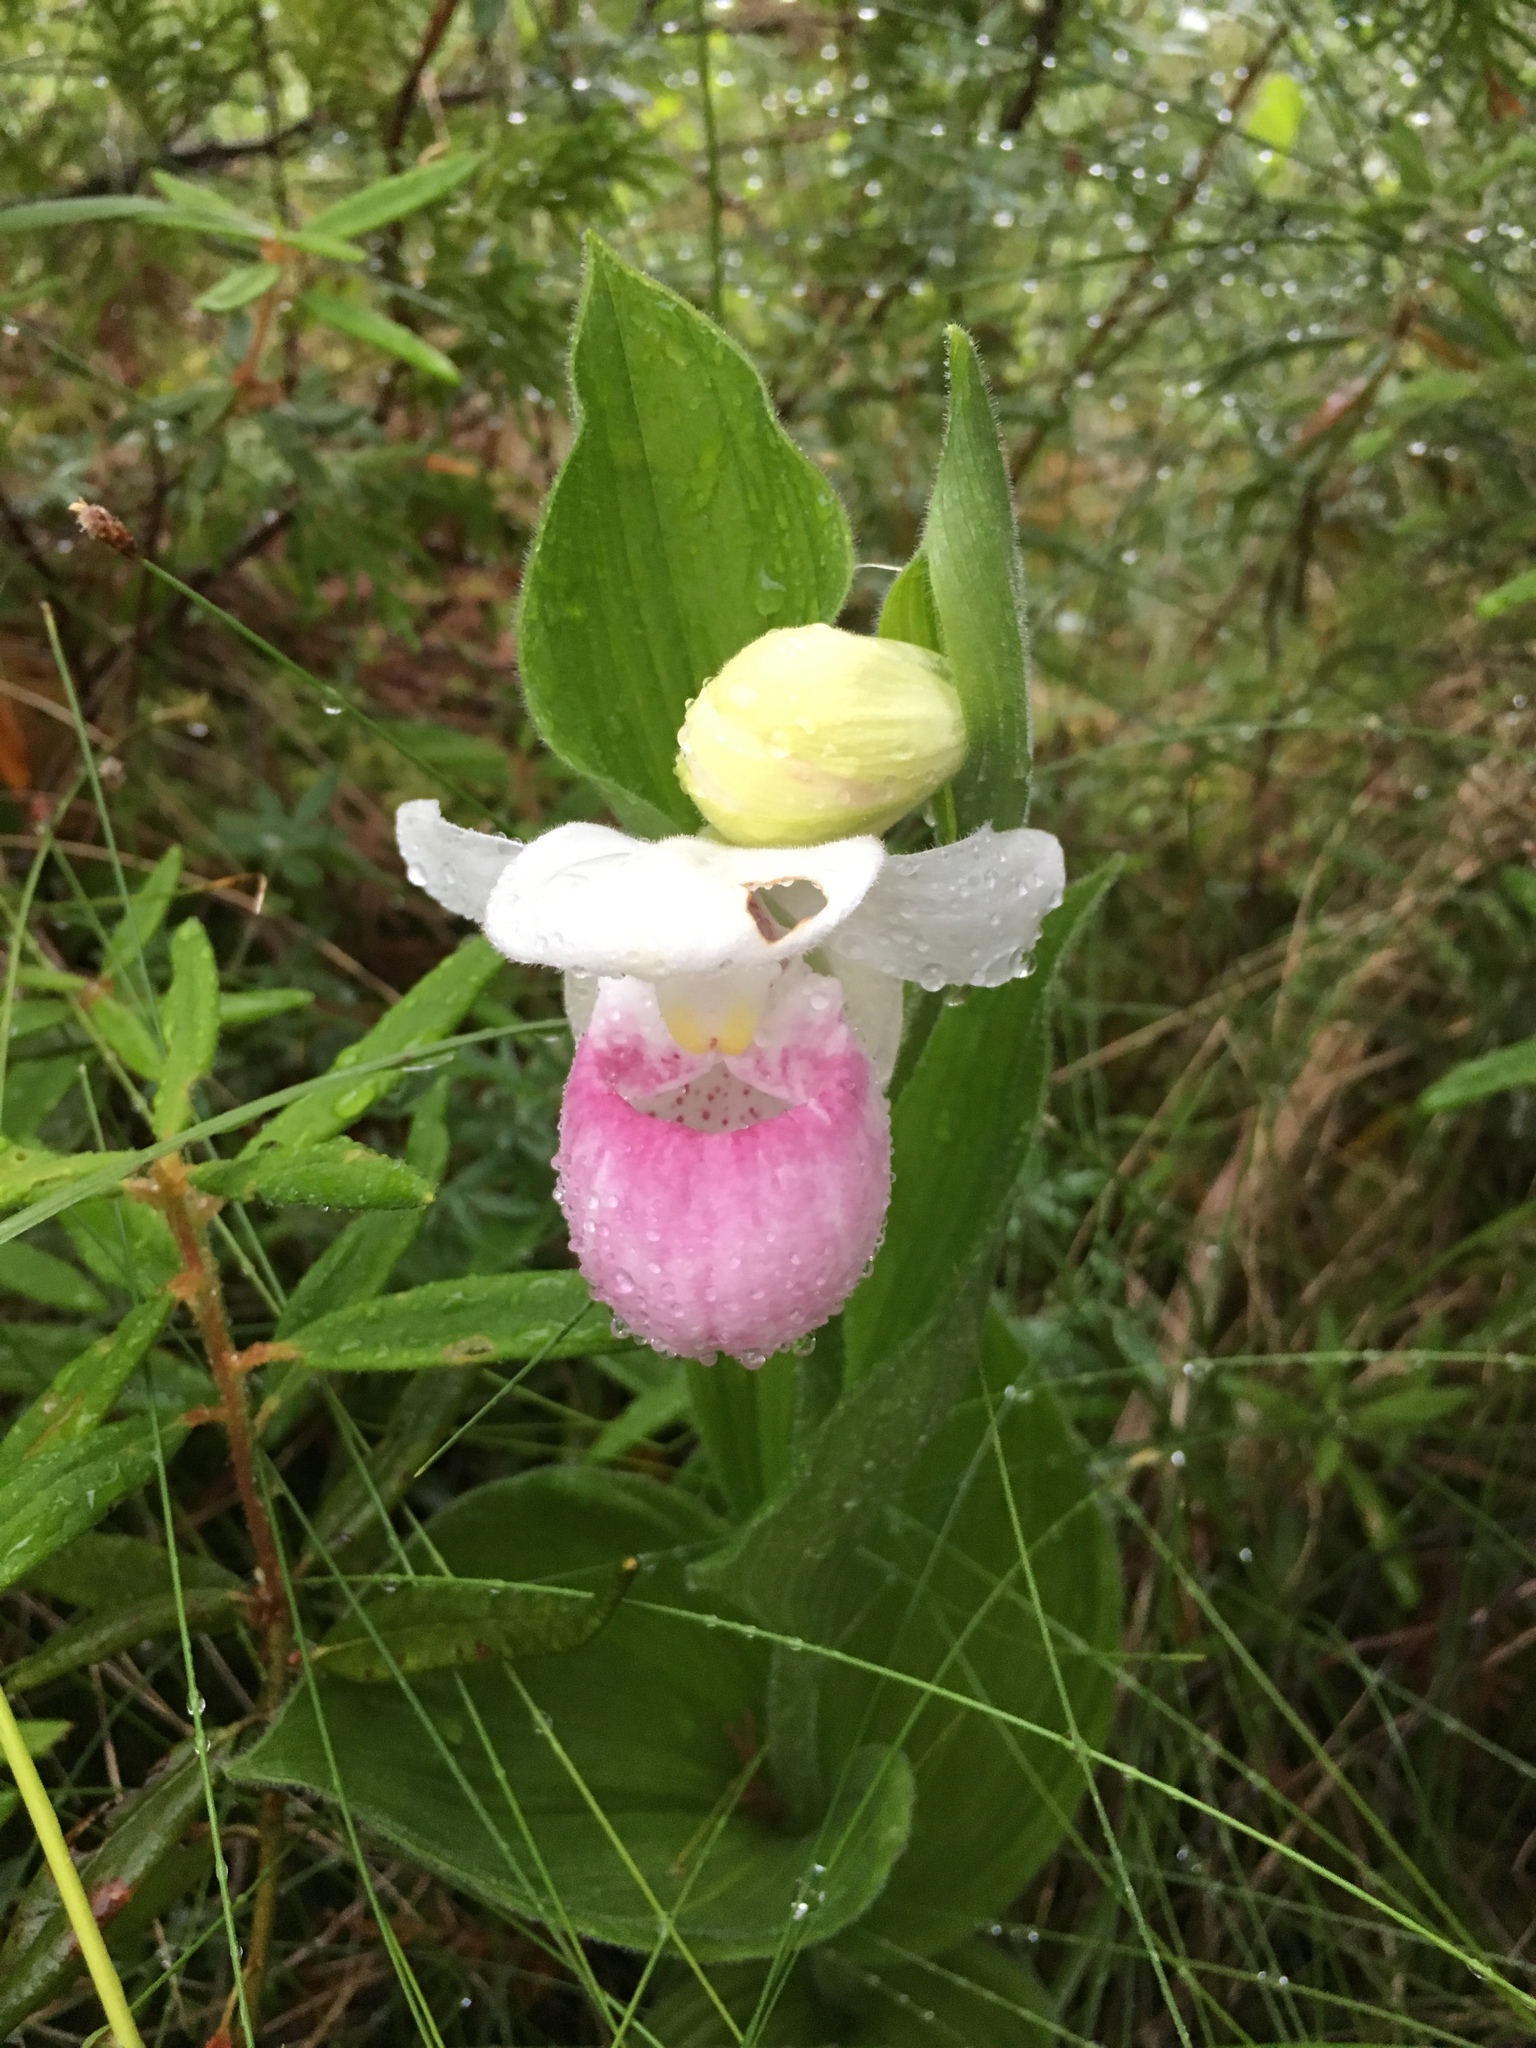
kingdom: Plantae
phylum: Tracheophyta
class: Liliopsida
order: Asparagales
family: Orchidaceae
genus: Cypripedium
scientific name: Cypripedium reginae
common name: Queen lady's-slipper
